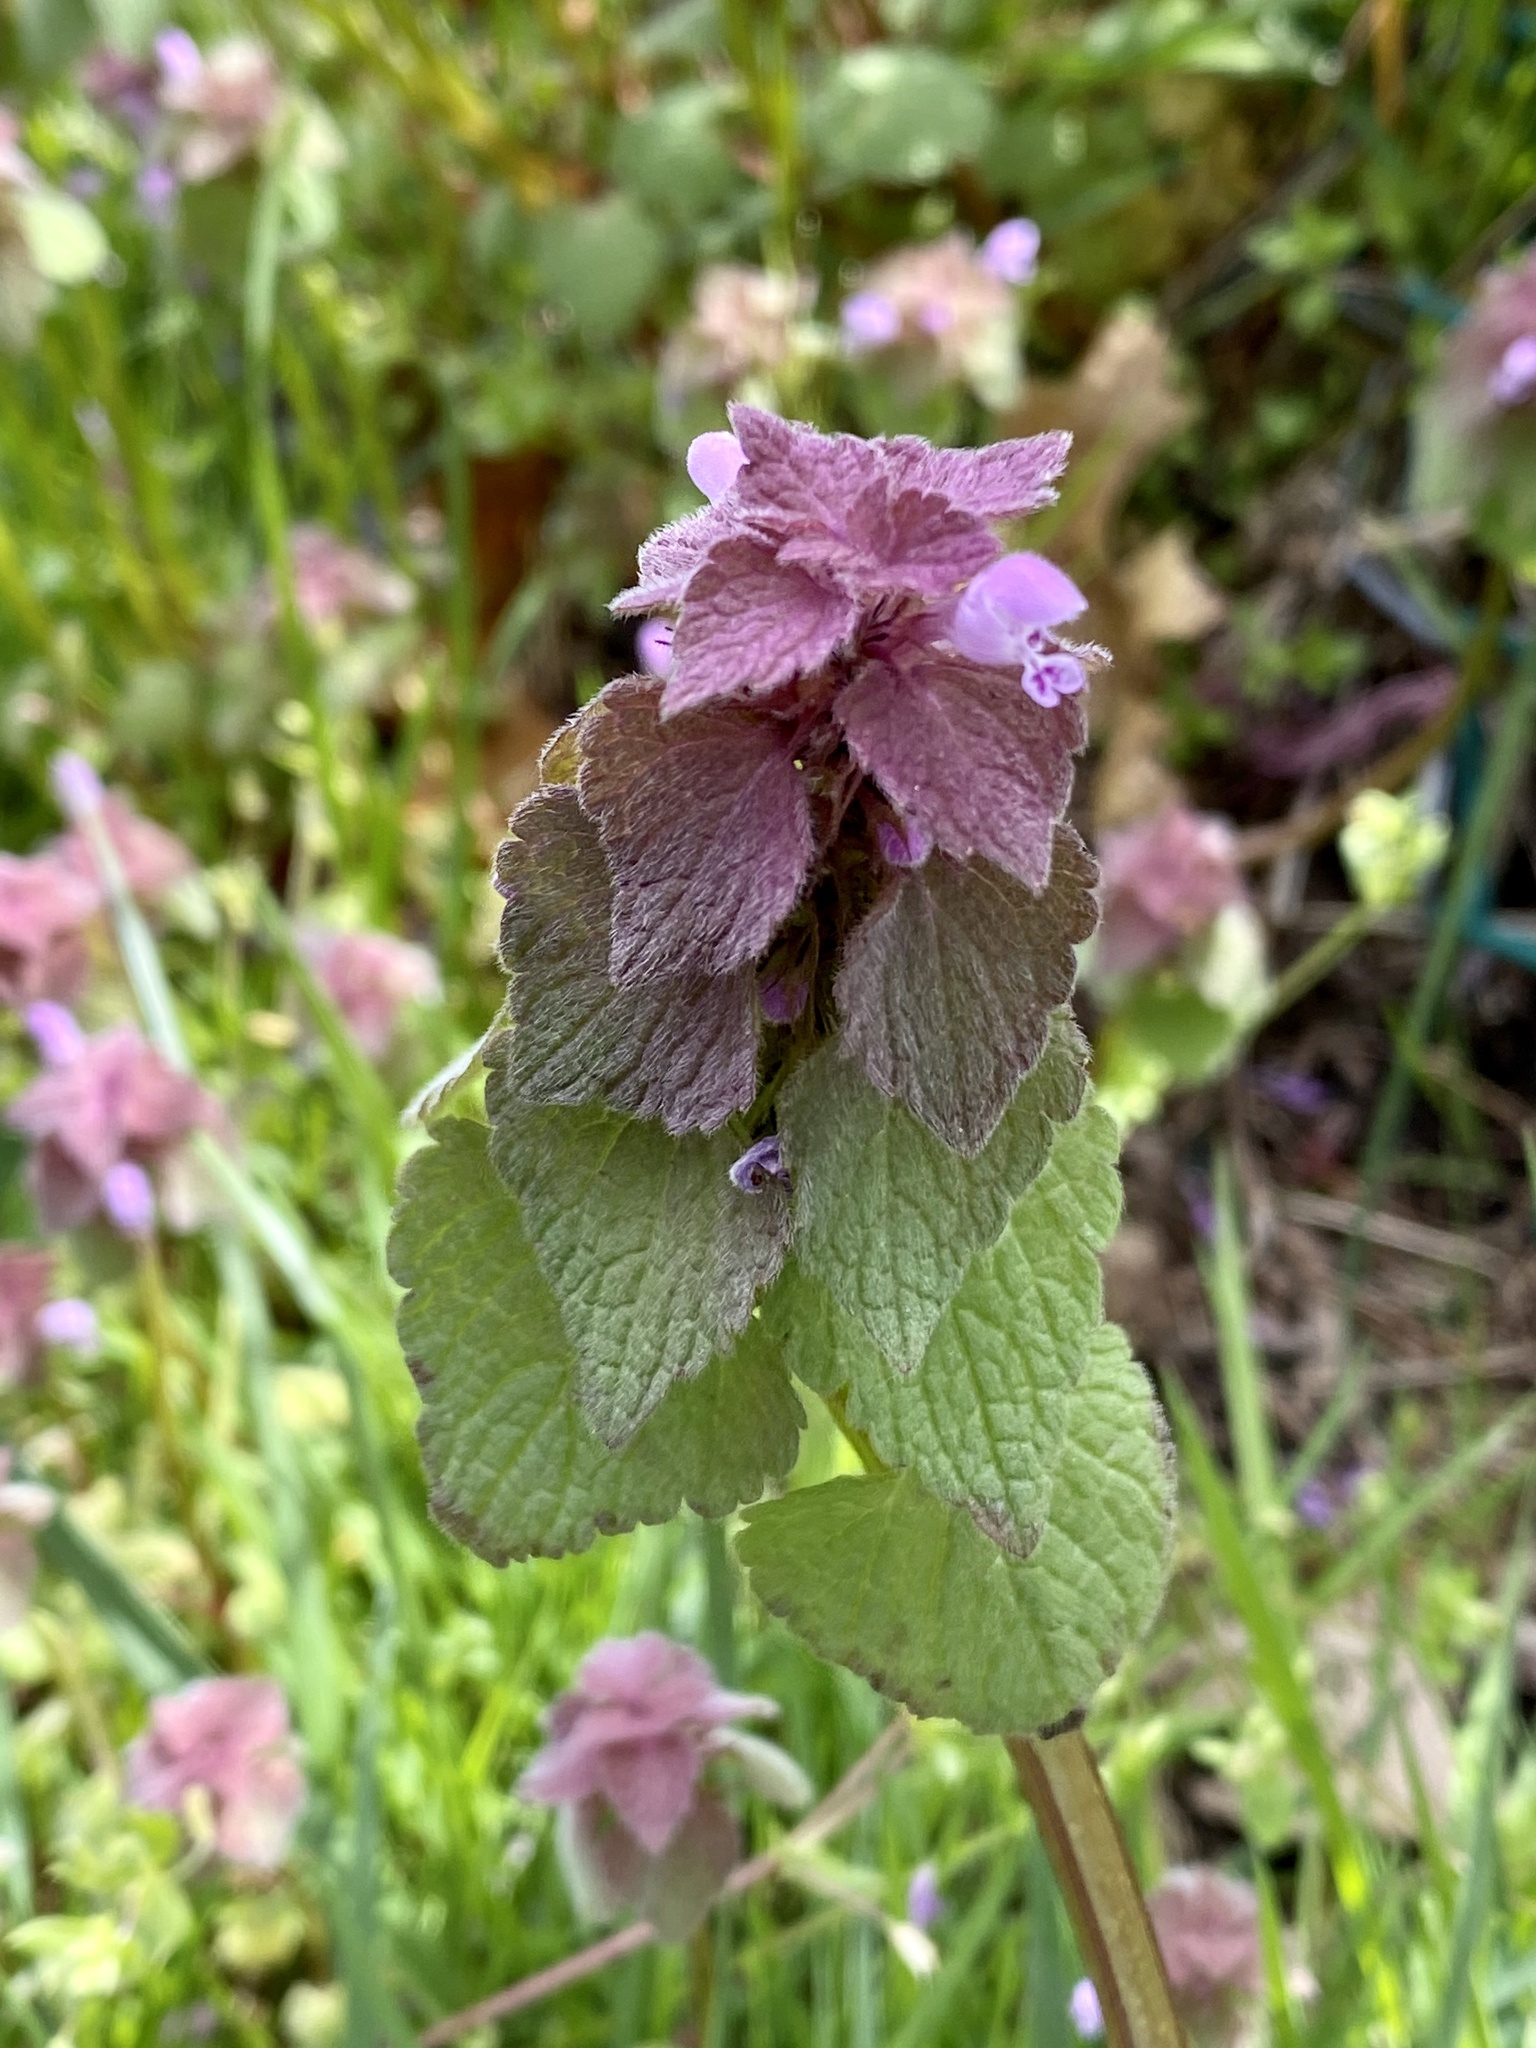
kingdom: Plantae
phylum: Tracheophyta
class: Magnoliopsida
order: Lamiales
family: Lamiaceae
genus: Lamium
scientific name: Lamium purpureum
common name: Red dead-nettle
